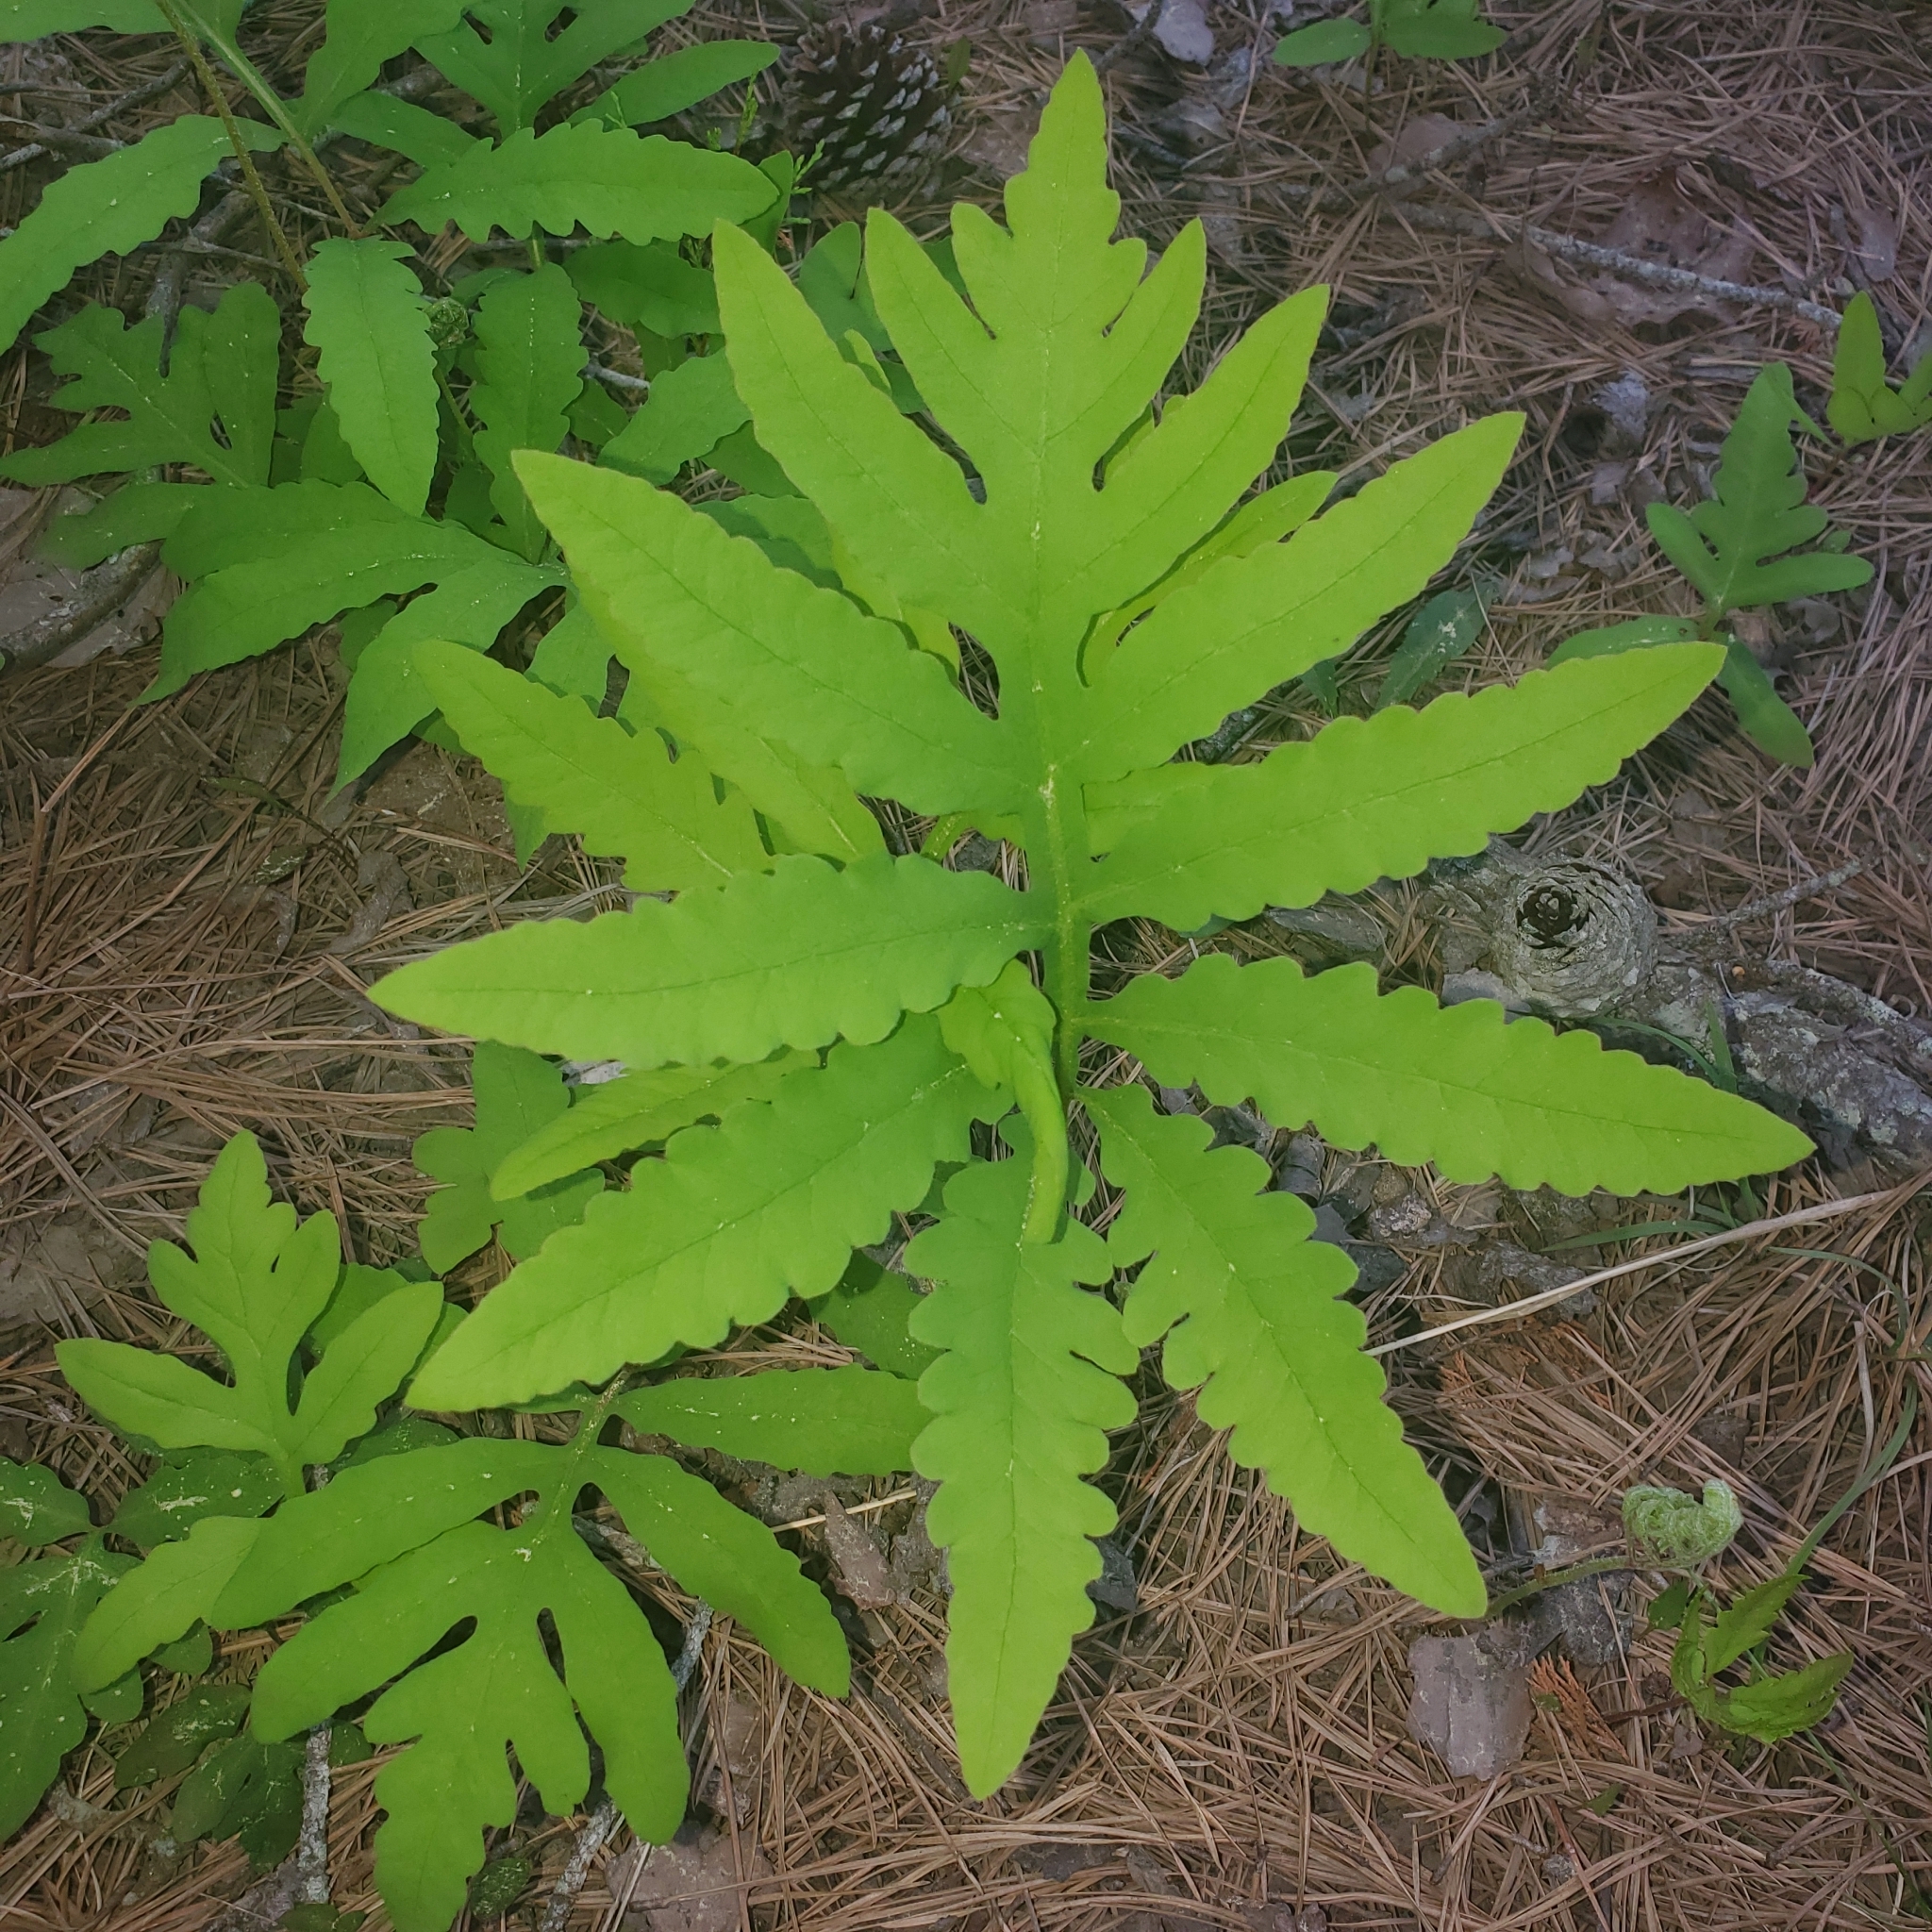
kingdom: Plantae
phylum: Tracheophyta
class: Polypodiopsida
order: Polypodiales
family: Onocleaceae
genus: Onoclea
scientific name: Onoclea sensibilis
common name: Sensitive fern
